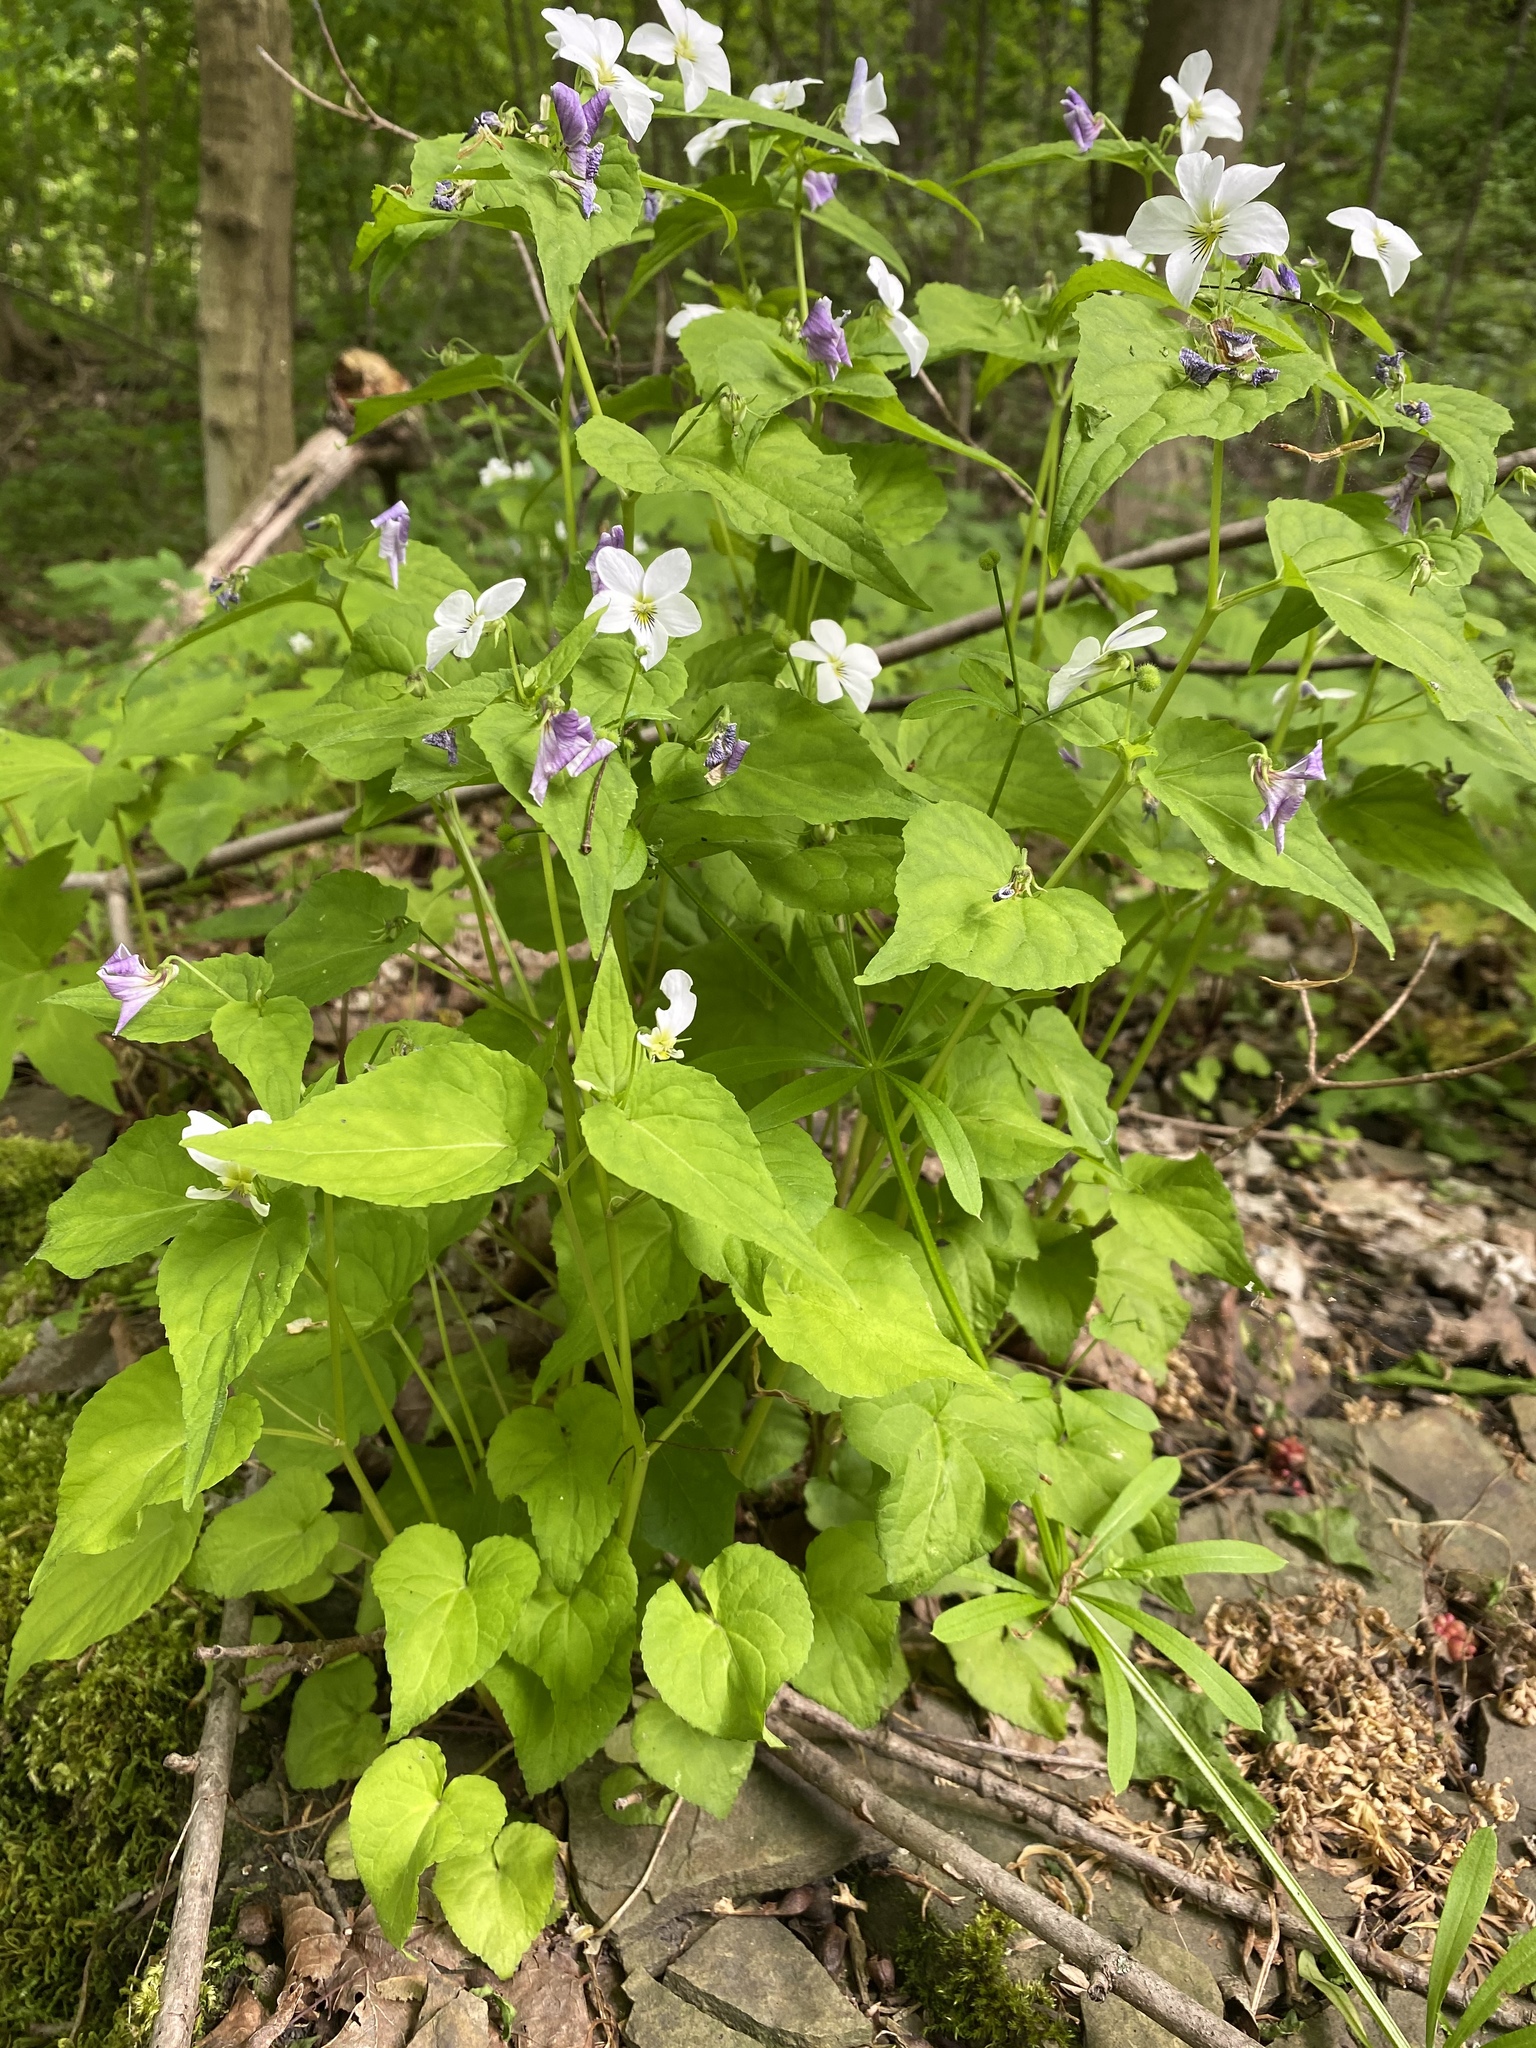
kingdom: Plantae
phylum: Tracheophyta
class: Magnoliopsida
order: Malpighiales
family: Violaceae
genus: Viola
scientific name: Viola canadensis
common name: Canada violet
